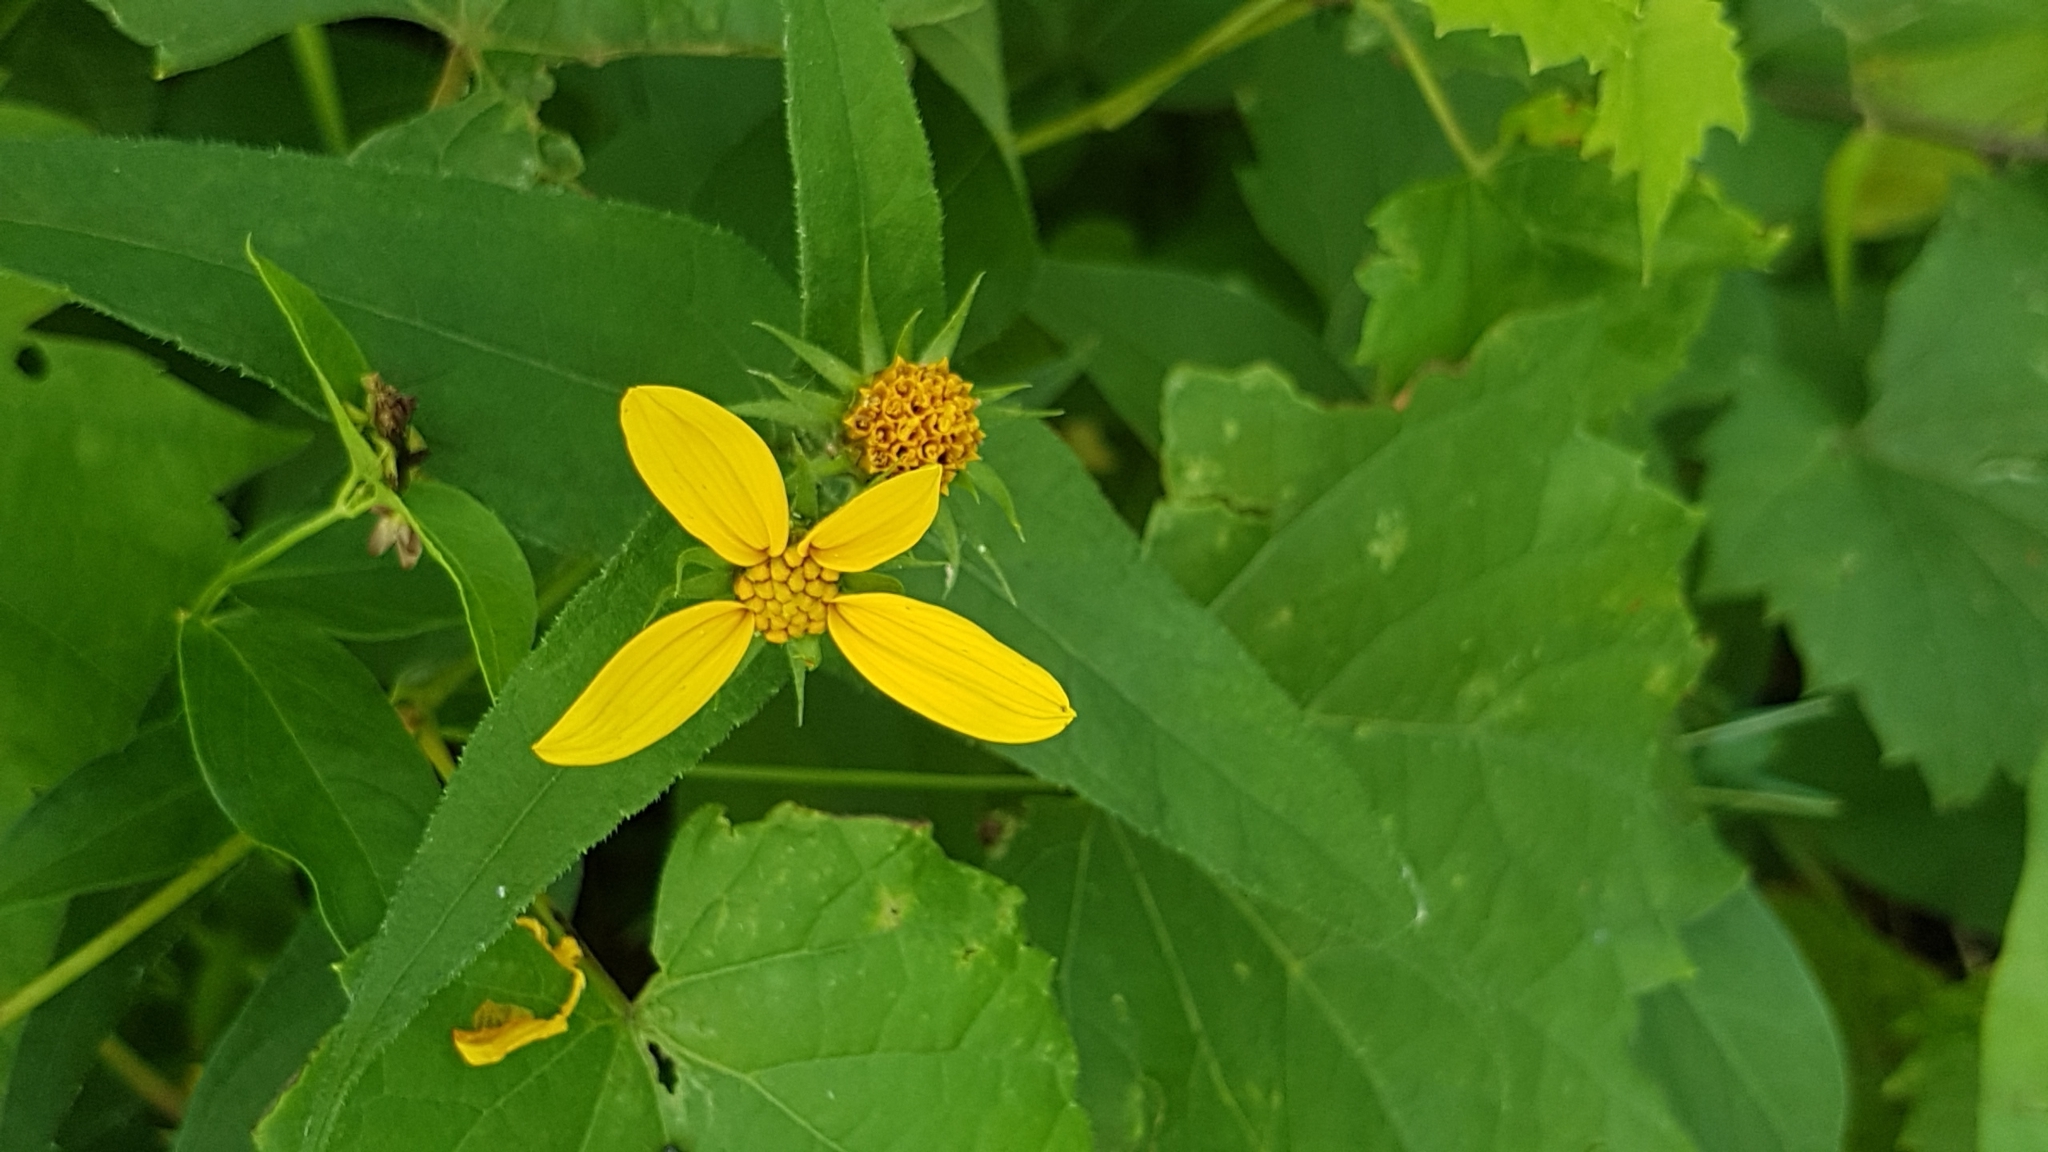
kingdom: Plantae
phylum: Tracheophyta
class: Magnoliopsida
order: Asterales
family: Asteraceae
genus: Helianthus
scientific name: Helianthus divaricatus
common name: Divergent sunflower
